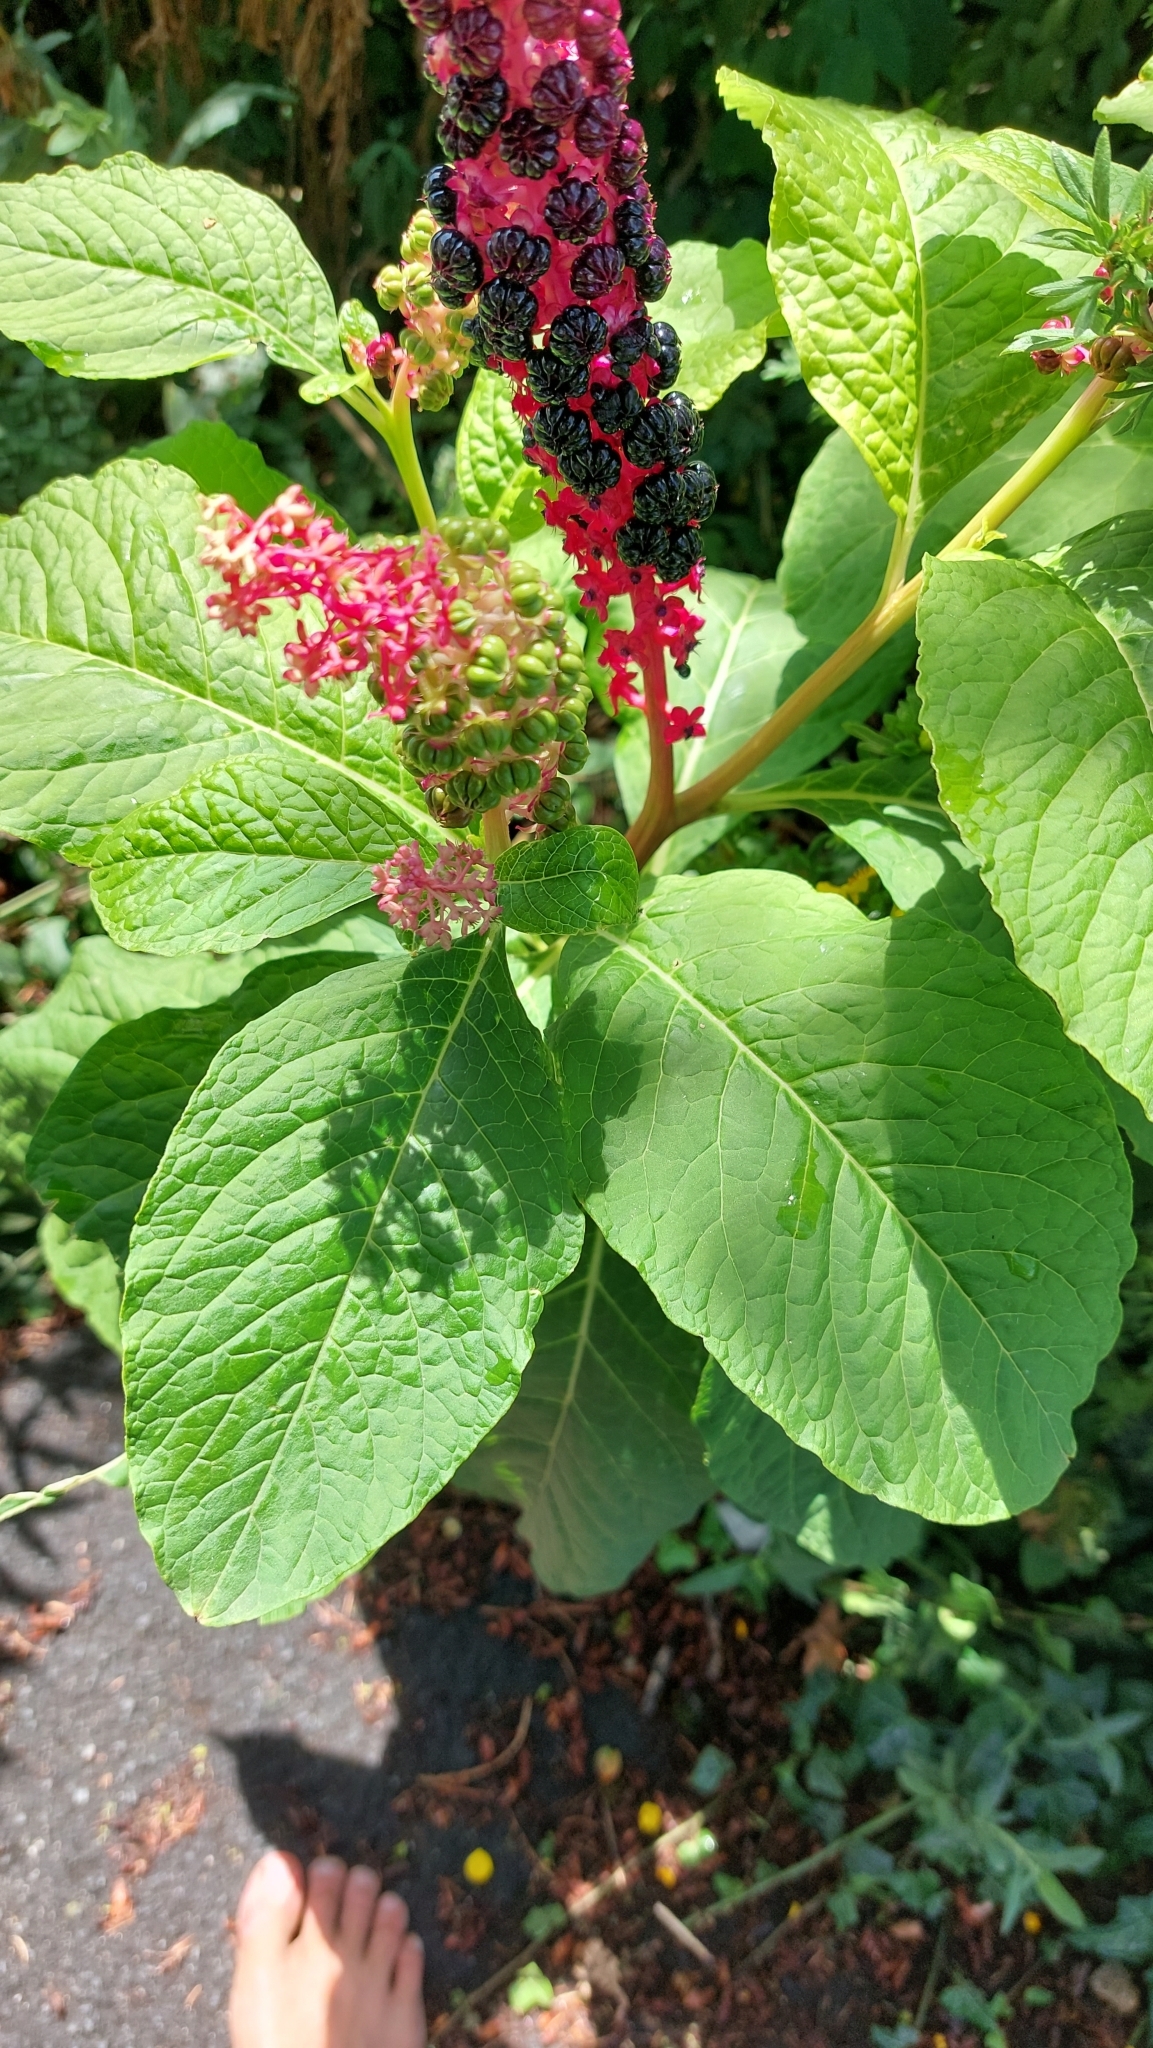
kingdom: Plantae
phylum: Tracheophyta
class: Magnoliopsida
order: Caryophyllales
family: Phytolaccaceae
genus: Phytolacca
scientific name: Phytolacca acinosa
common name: Indian pokeweed
